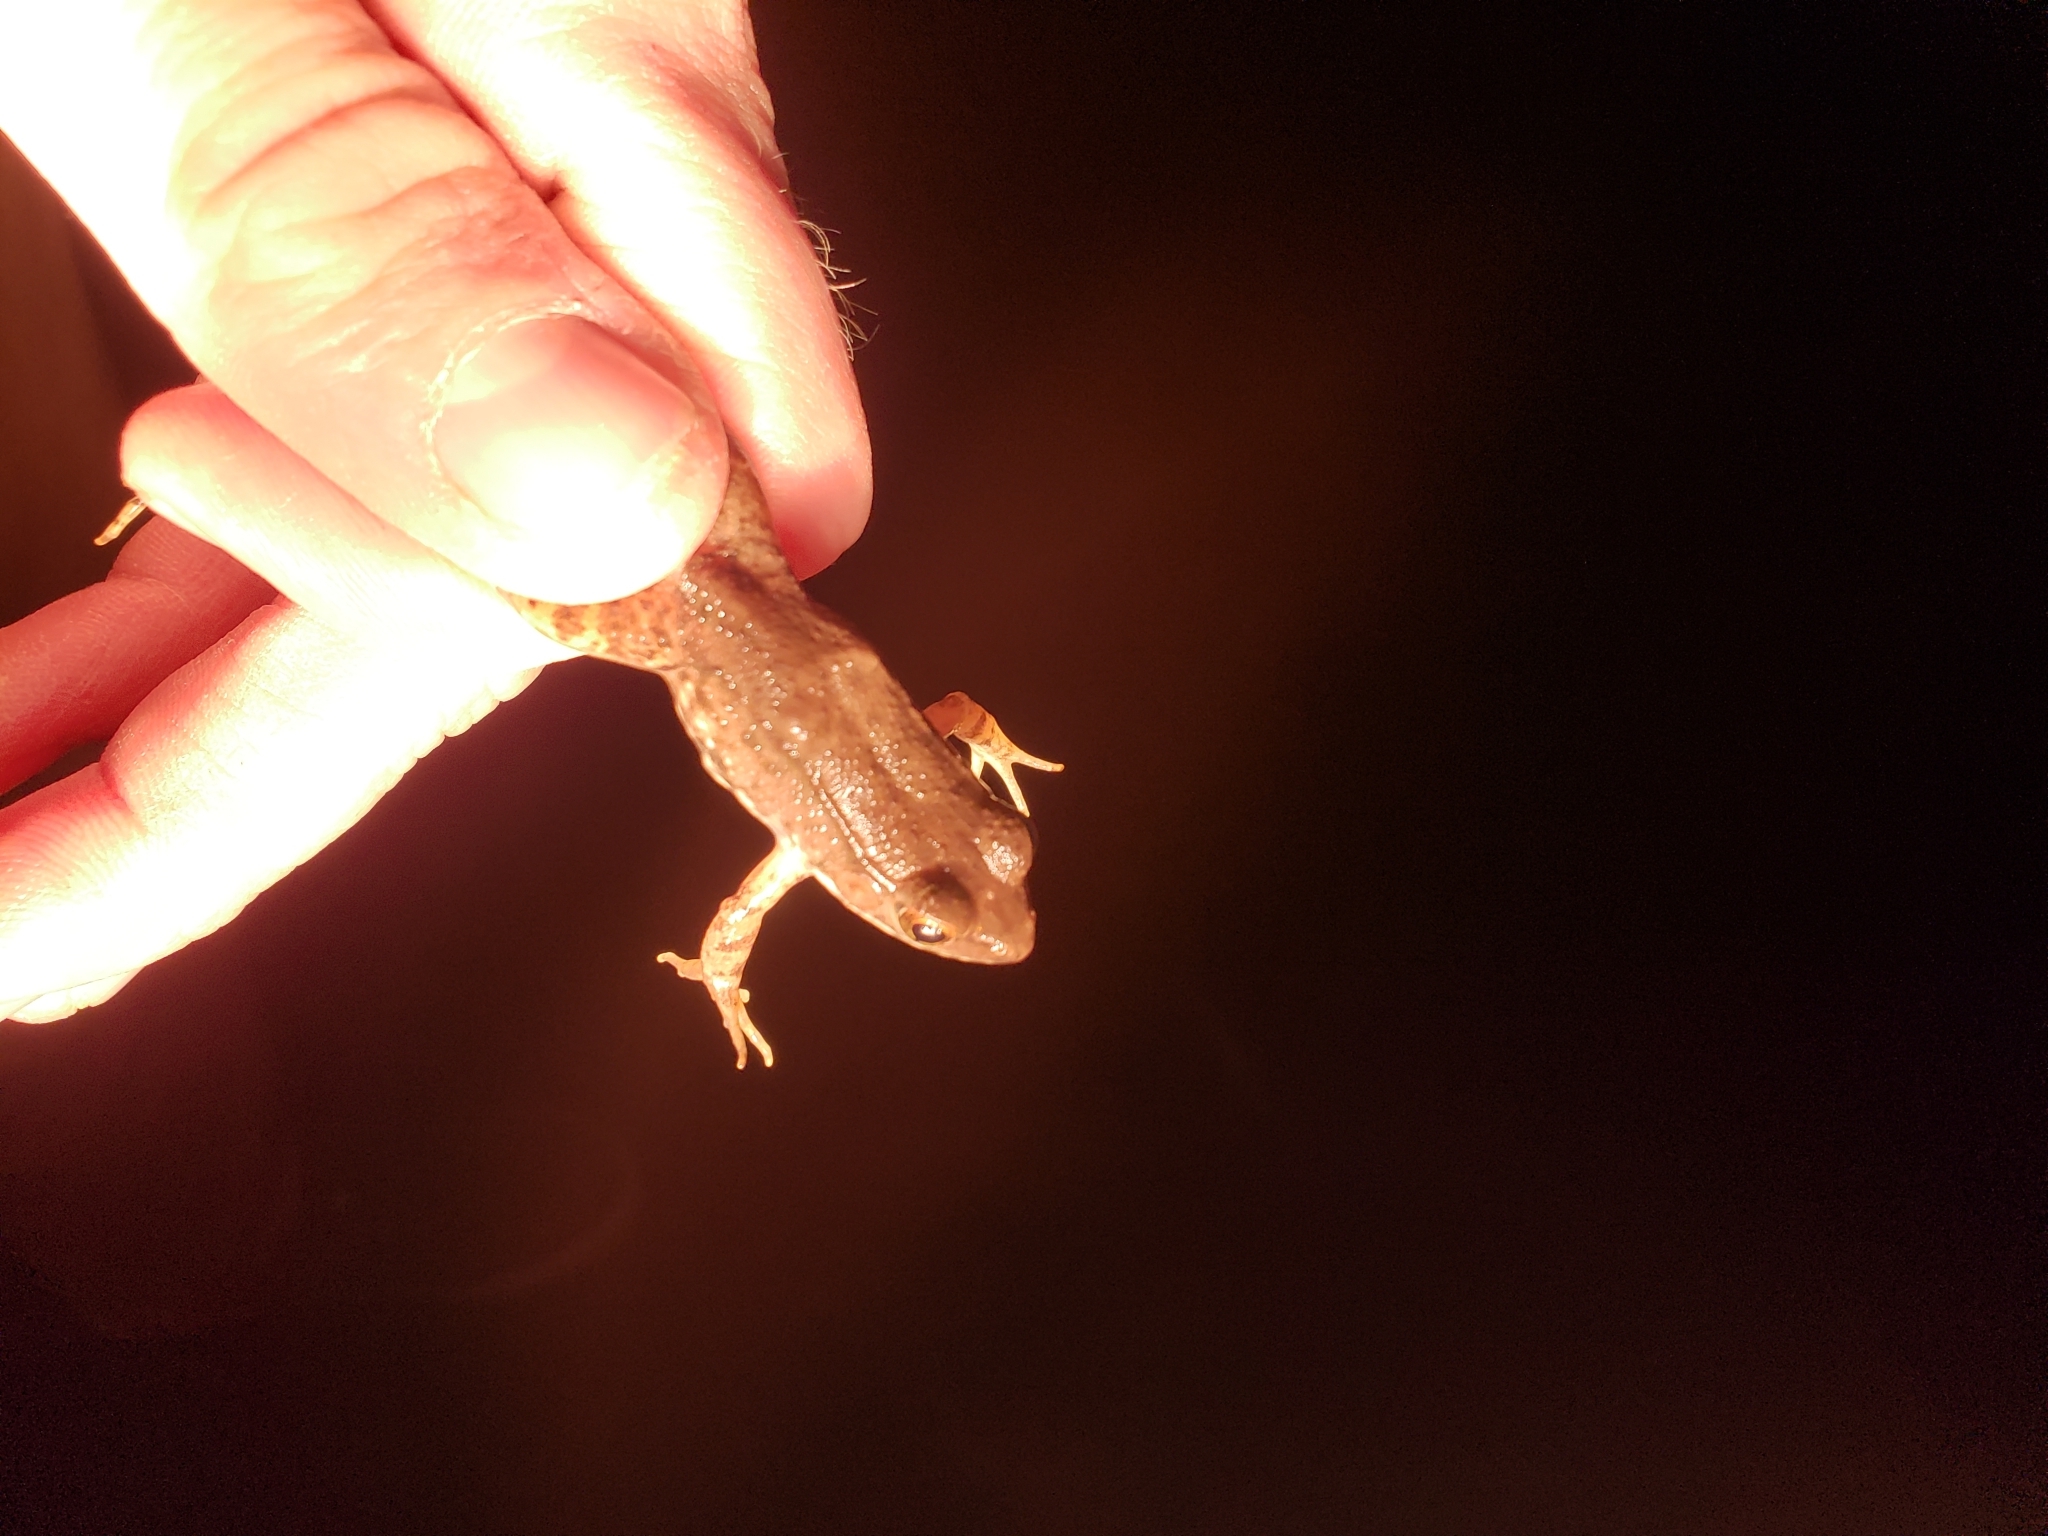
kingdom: Animalia
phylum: Chordata
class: Amphibia
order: Anura
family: Ranidae
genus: Lithobates
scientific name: Lithobates clamitans
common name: Green frog
